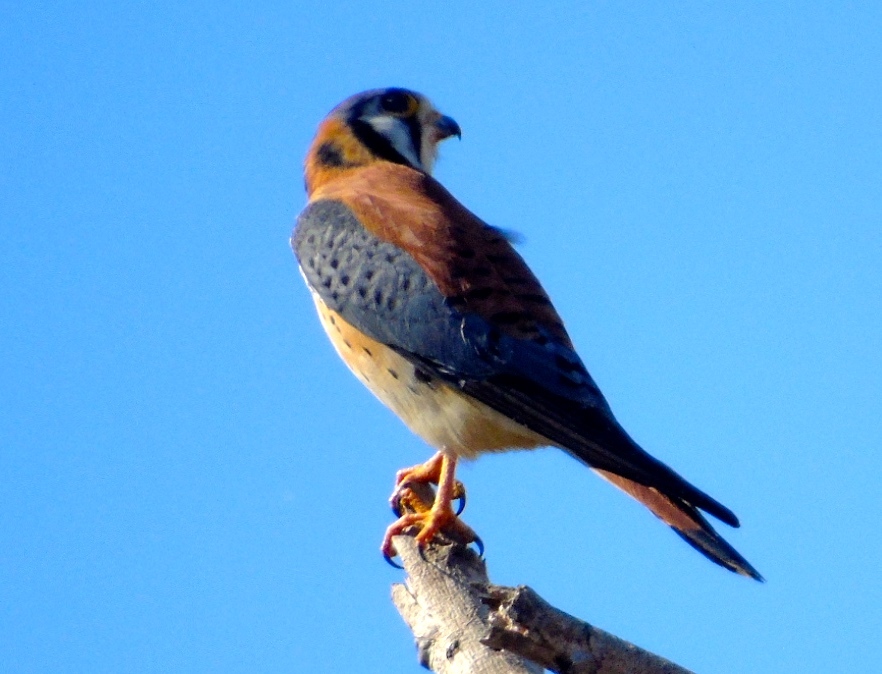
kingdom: Animalia
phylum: Chordata
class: Aves
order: Falconiformes
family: Falconidae
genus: Falco
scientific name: Falco sparverius
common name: American kestrel
